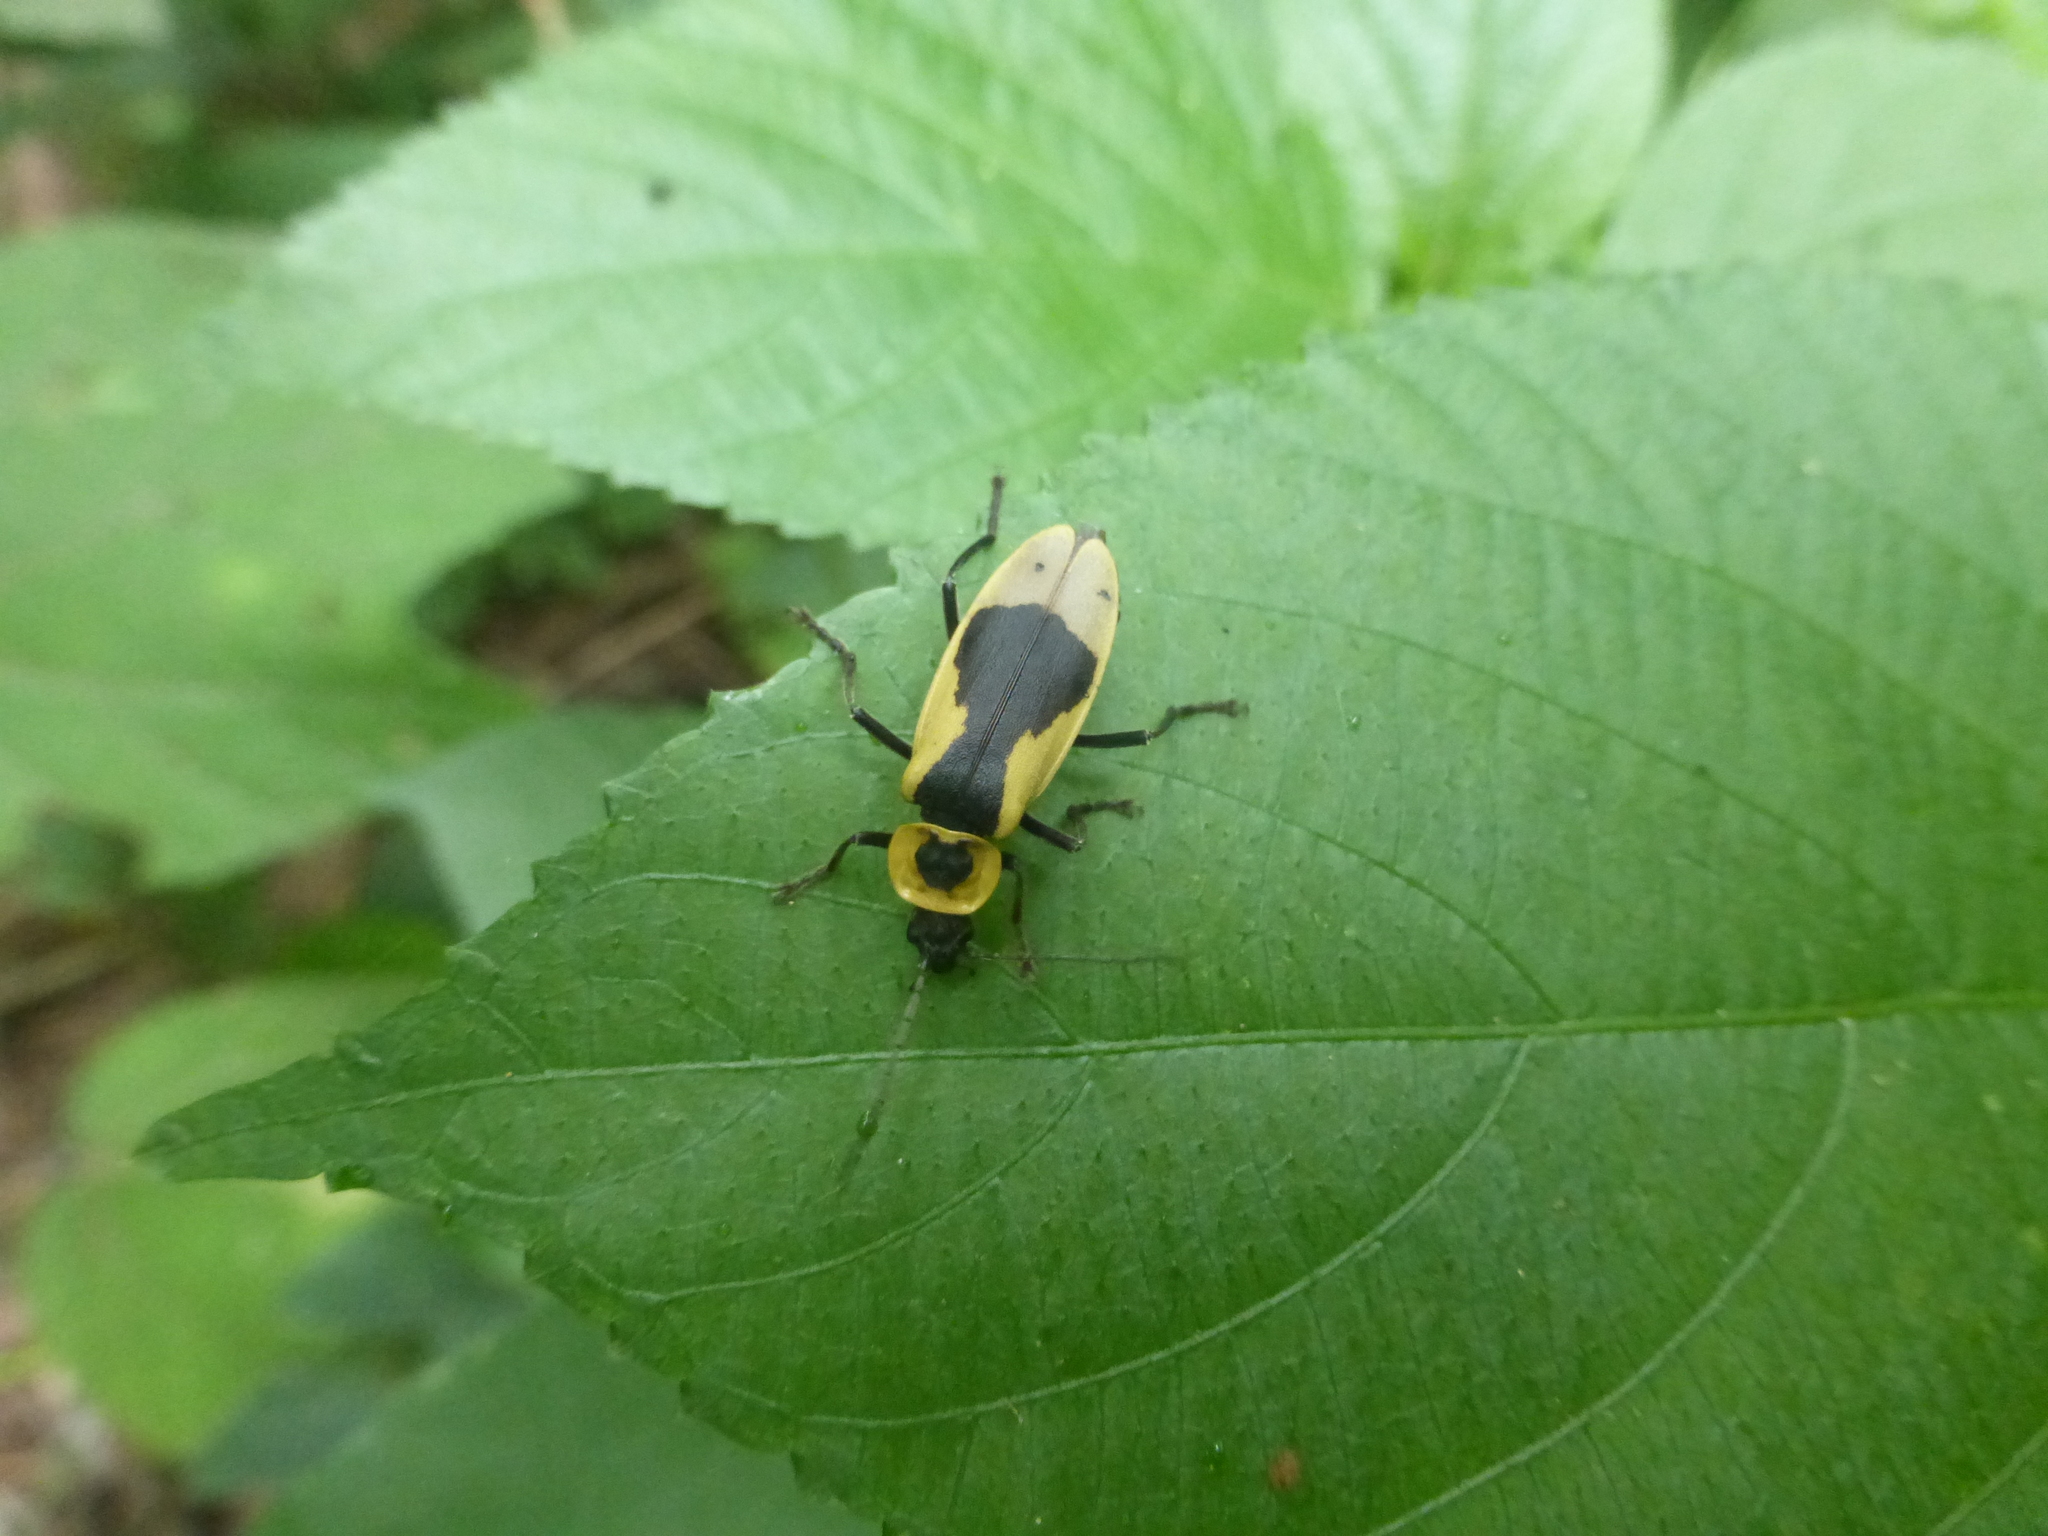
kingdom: Animalia
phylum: Arthropoda
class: Insecta
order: Coleoptera
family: Cantharidae
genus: Chauliognathus
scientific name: Chauliognathus
